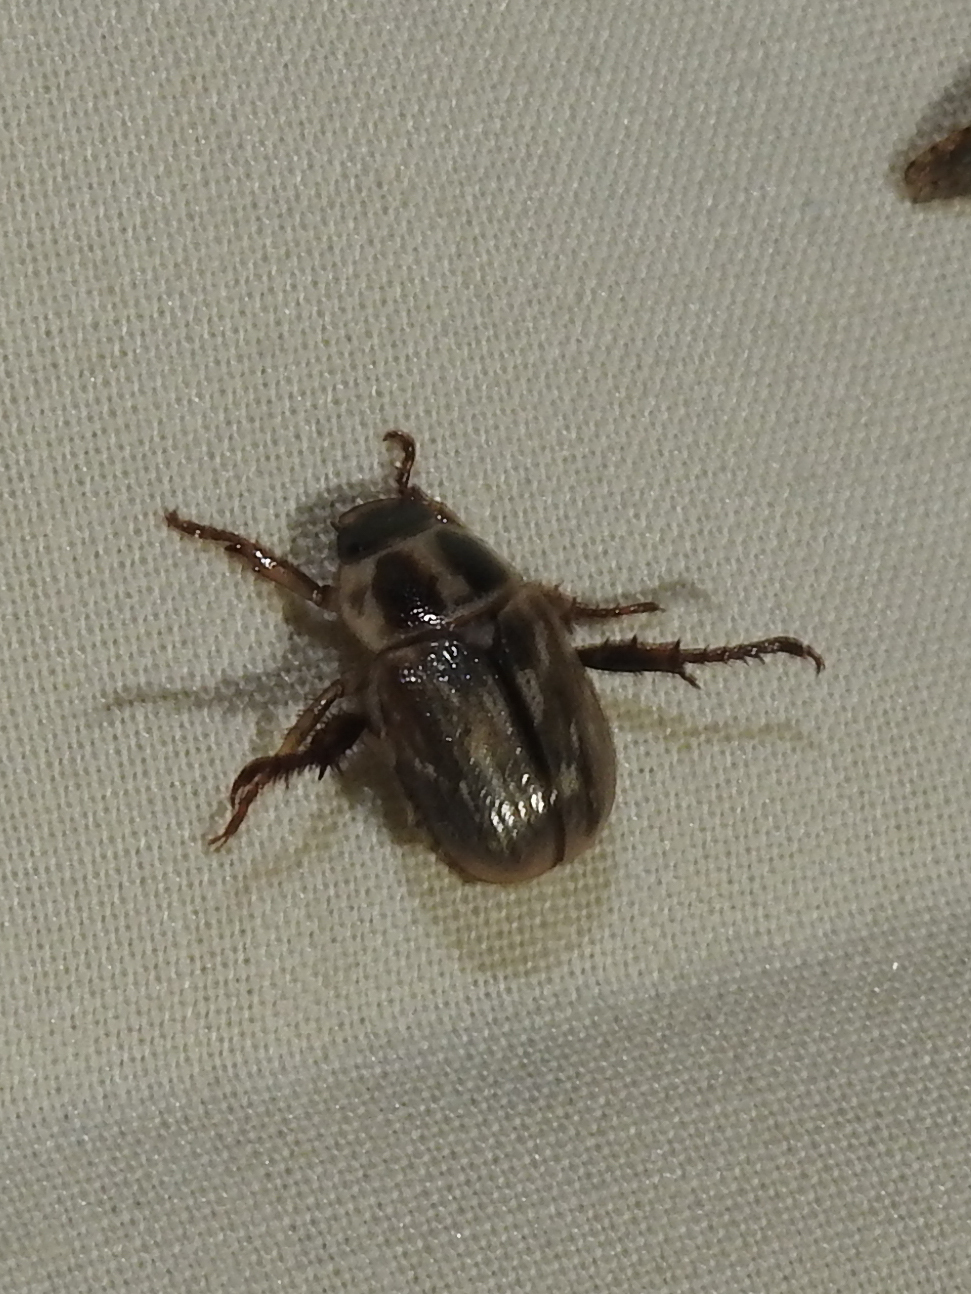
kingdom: Animalia
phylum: Arthropoda
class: Insecta
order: Coleoptera
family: Scarabaeidae
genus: Exomala
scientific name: Exomala orientalis
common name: Oriental beetle
